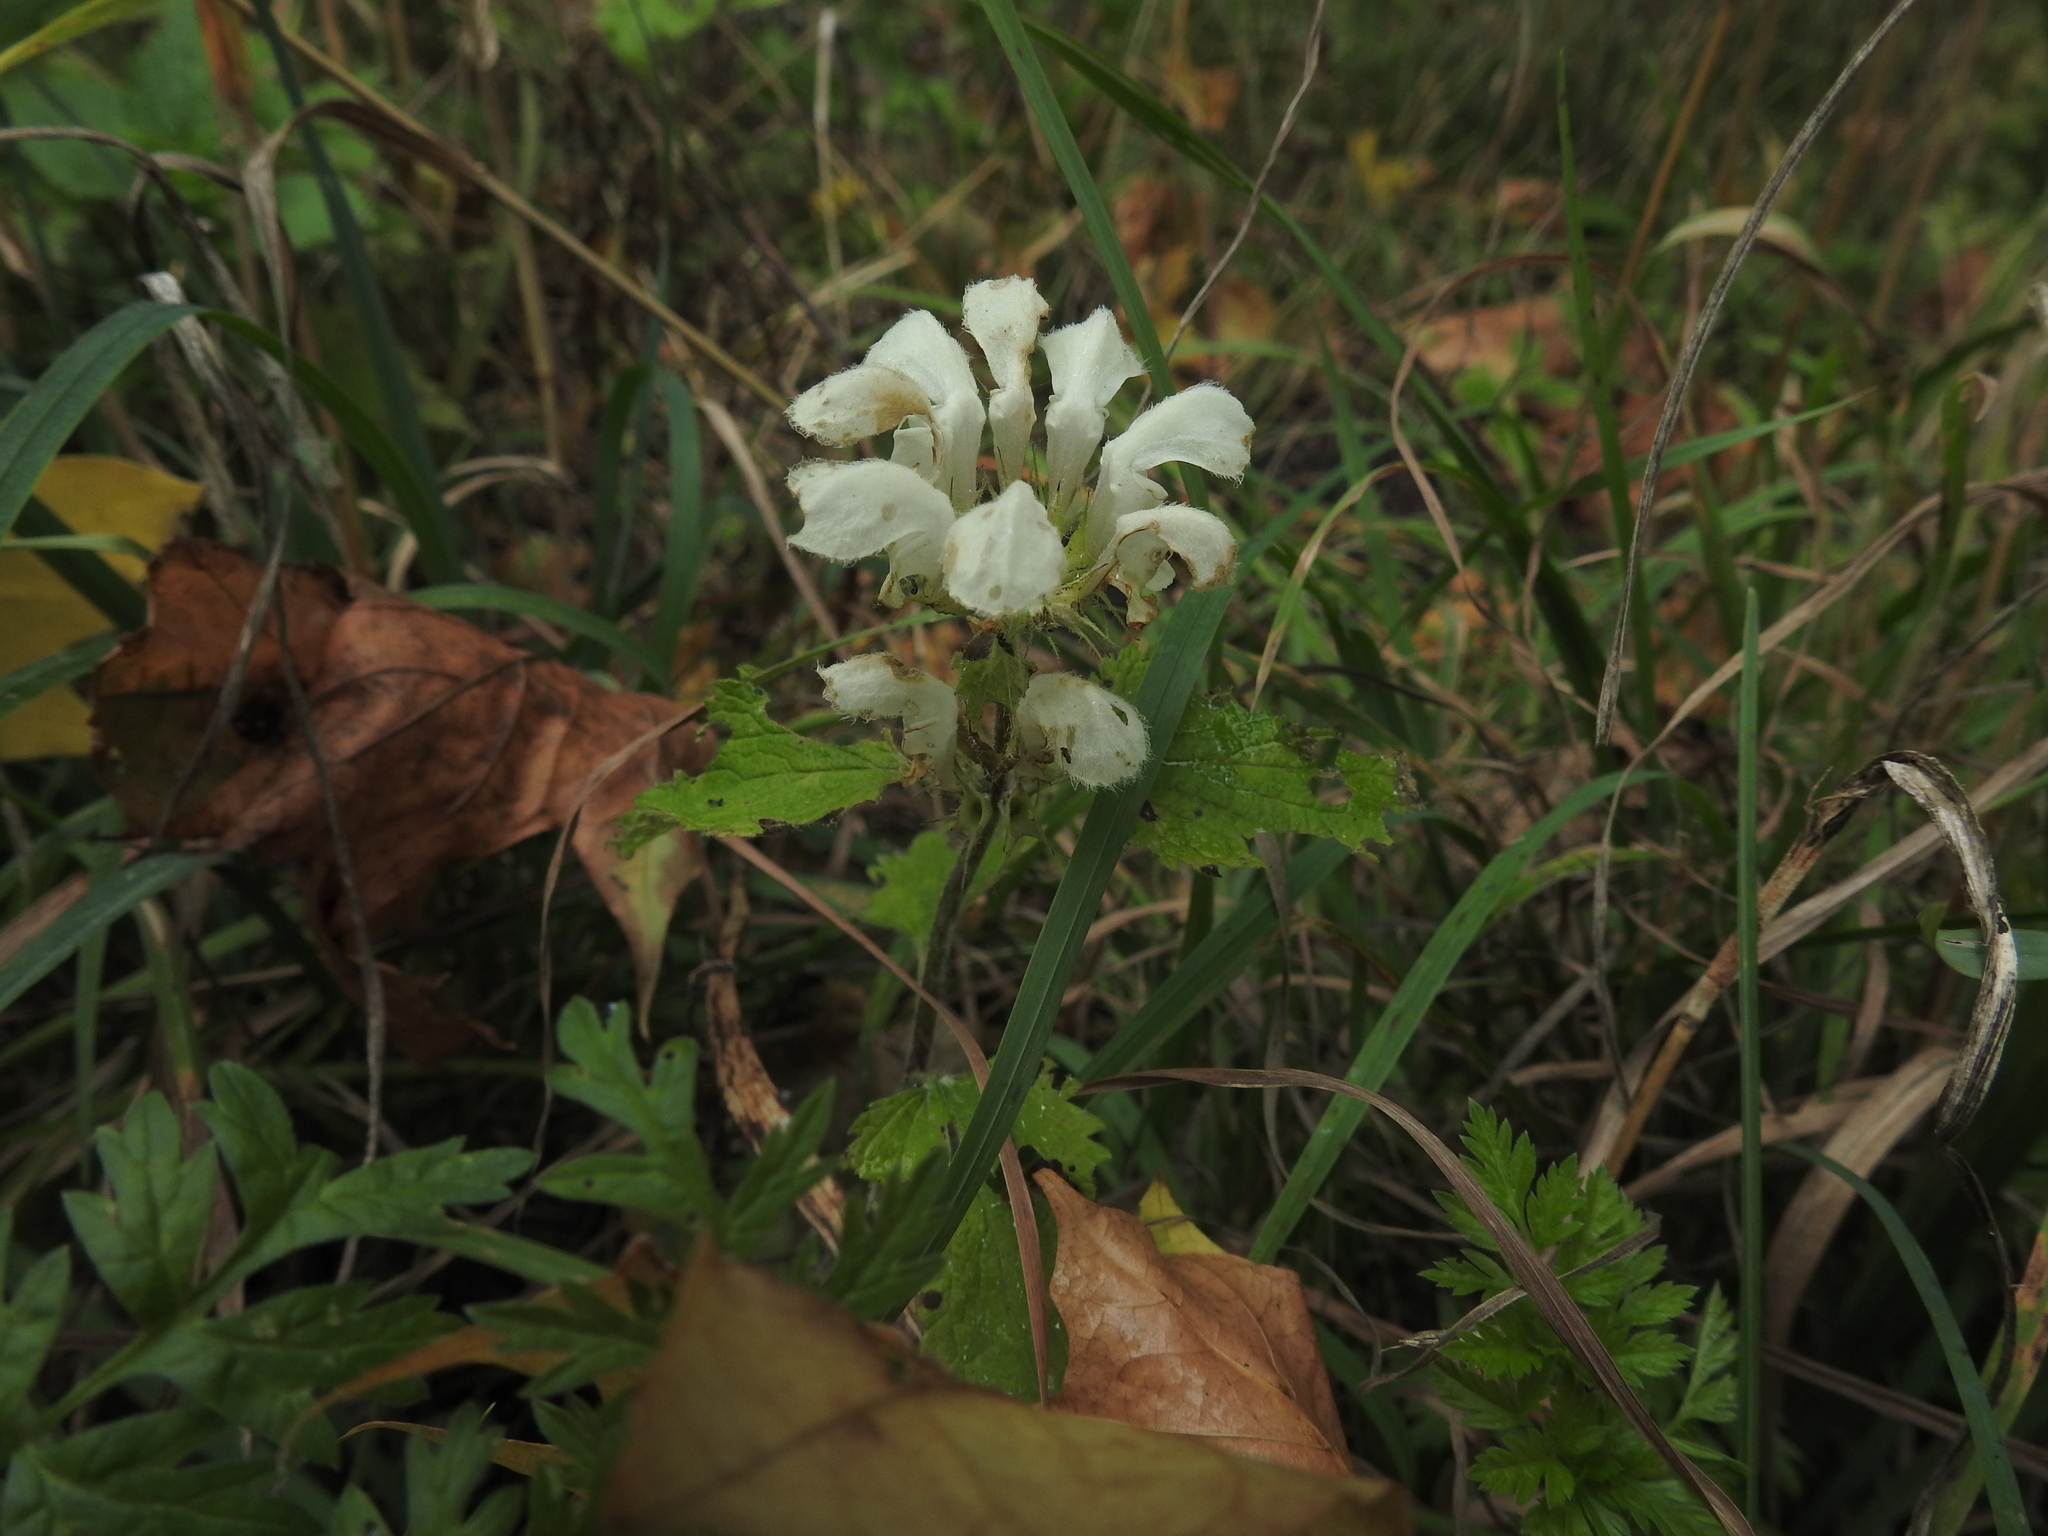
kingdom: Plantae
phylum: Tracheophyta
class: Magnoliopsida
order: Lamiales
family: Lamiaceae
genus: Lamium
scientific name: Lamium album
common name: White dead-nettle
